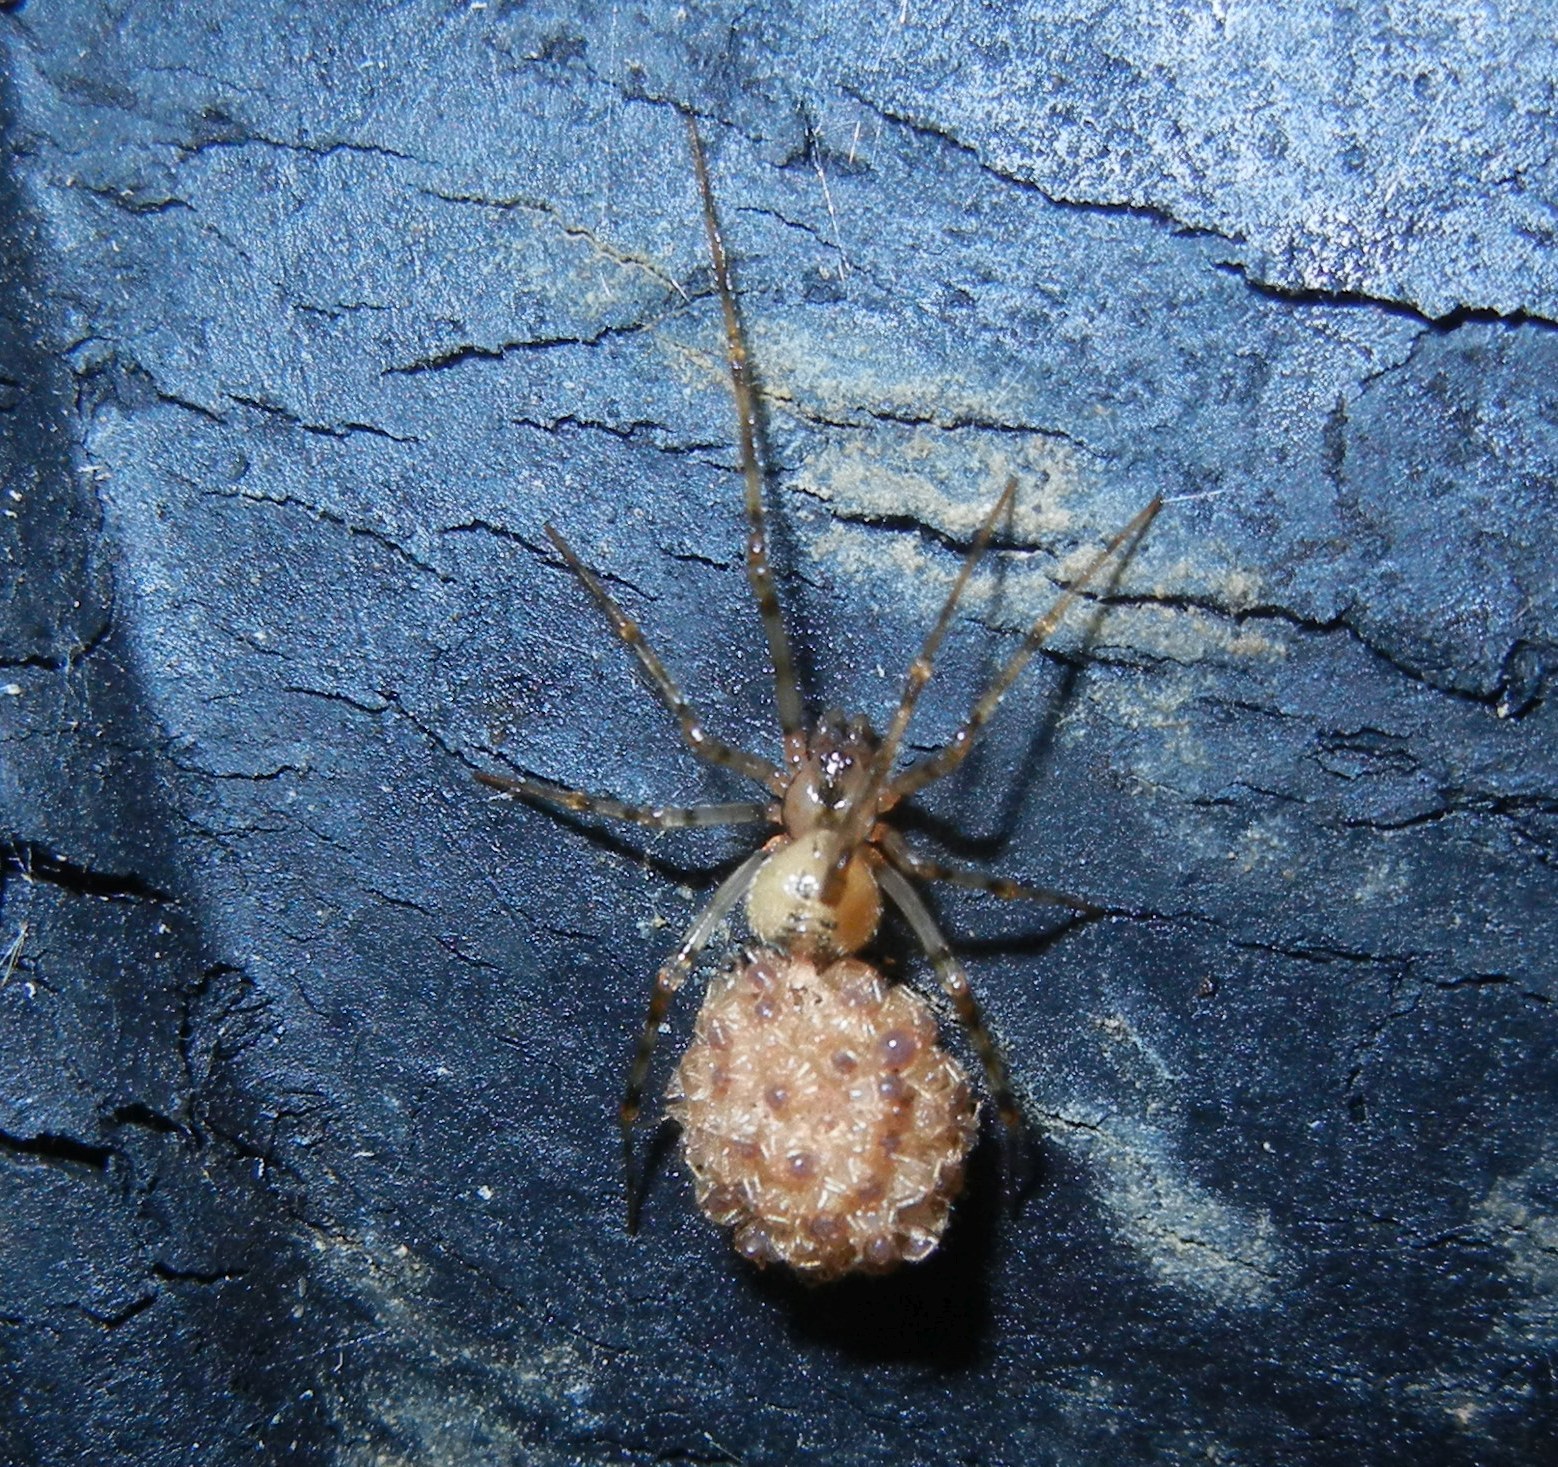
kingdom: Animalia
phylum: Arthropoda
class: Arachnida
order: Araneae
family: Nesticidae
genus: Nesticus
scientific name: Nesticus cellulanus
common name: Comb-footed cellar spider
